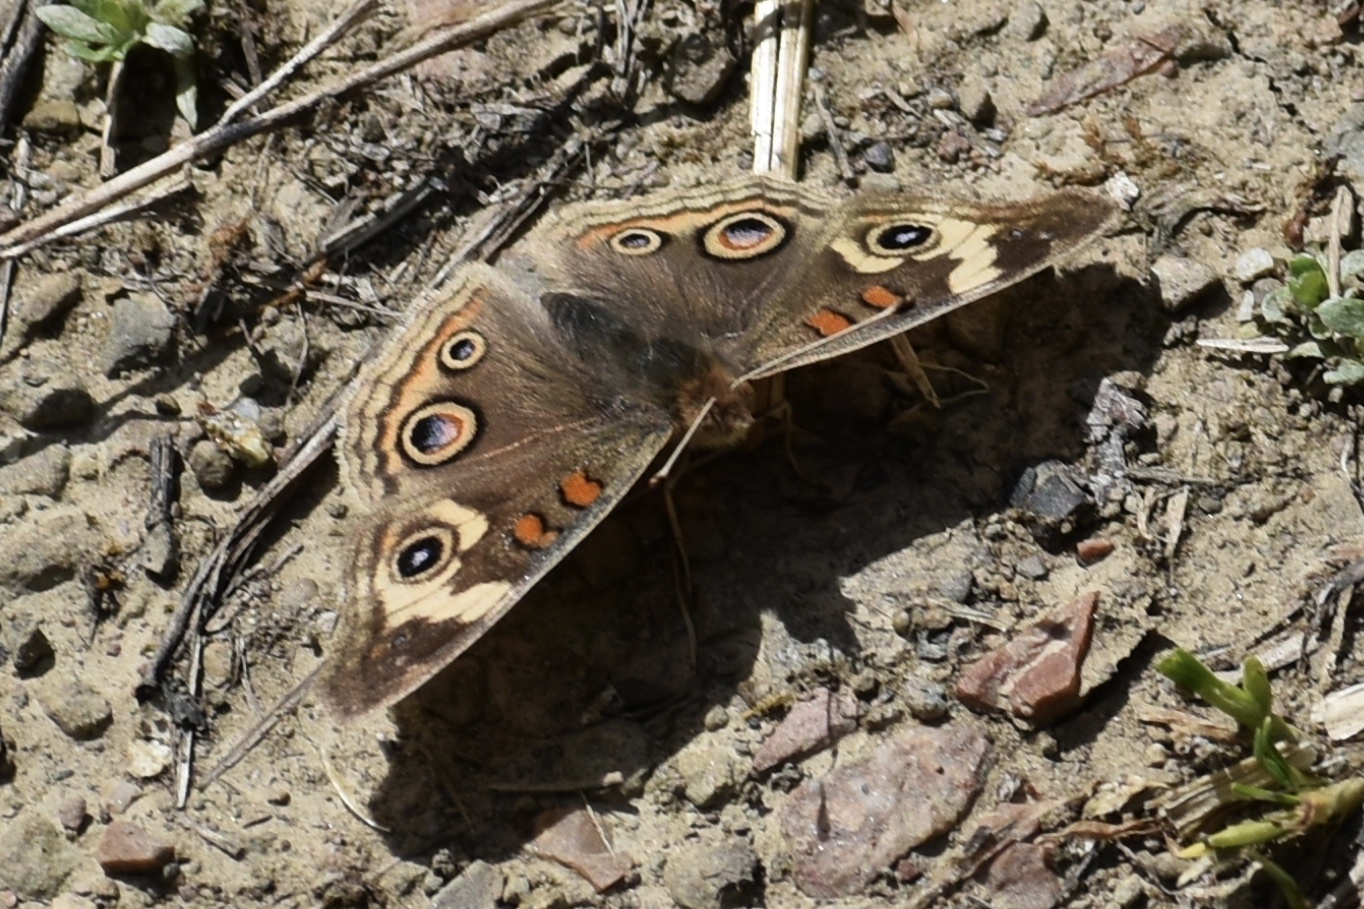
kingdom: Animalia
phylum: Arthropoda
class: Insecta
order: Lepidoptera
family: Nymphalidae
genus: Junonia
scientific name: Junonia grisea
